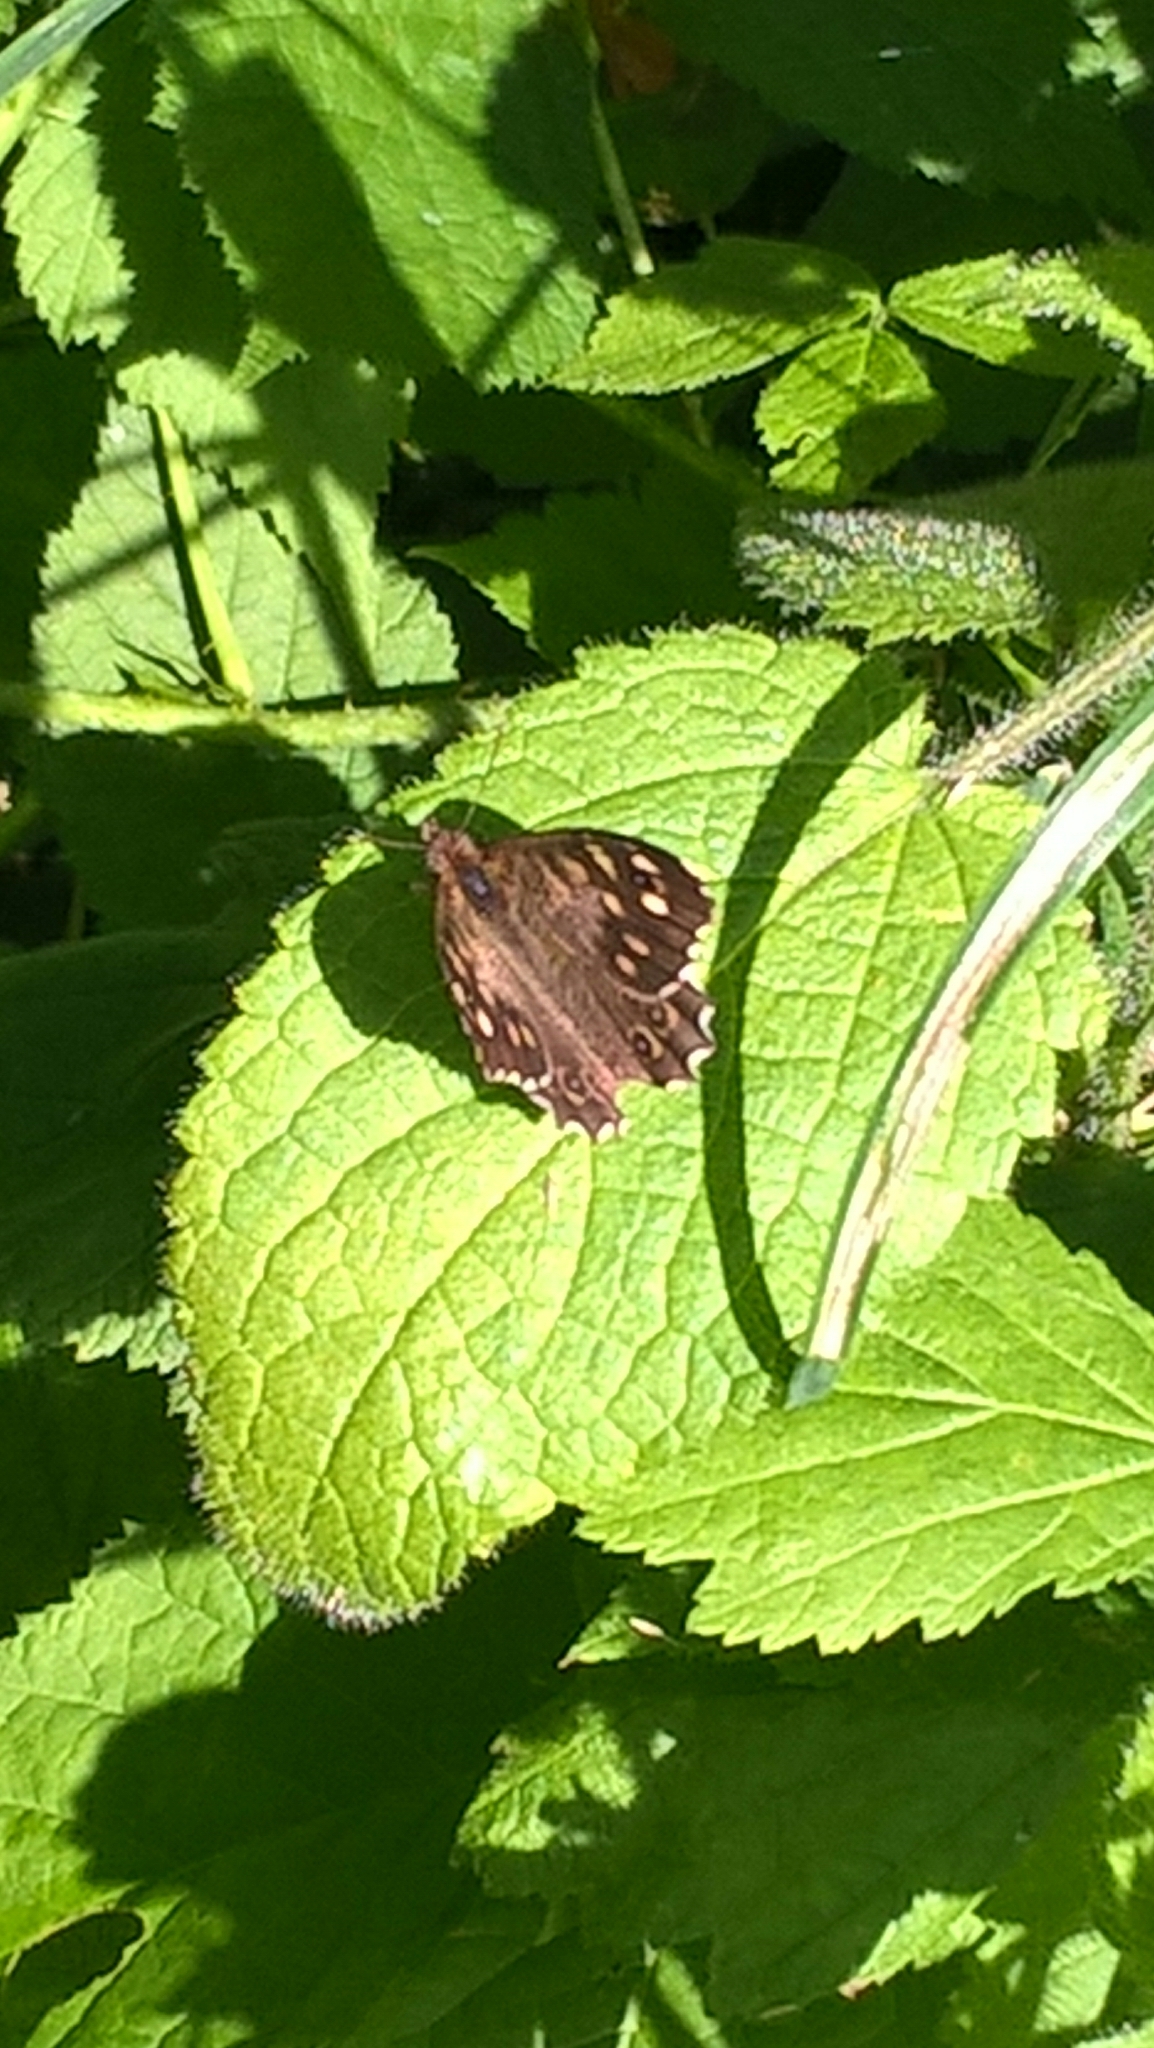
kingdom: Animalia
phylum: Arthropoda
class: Insecta
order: Lepidoptera
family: Nymphalidae
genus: Pararge
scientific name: Pararge aegeria
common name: Speckled wood
